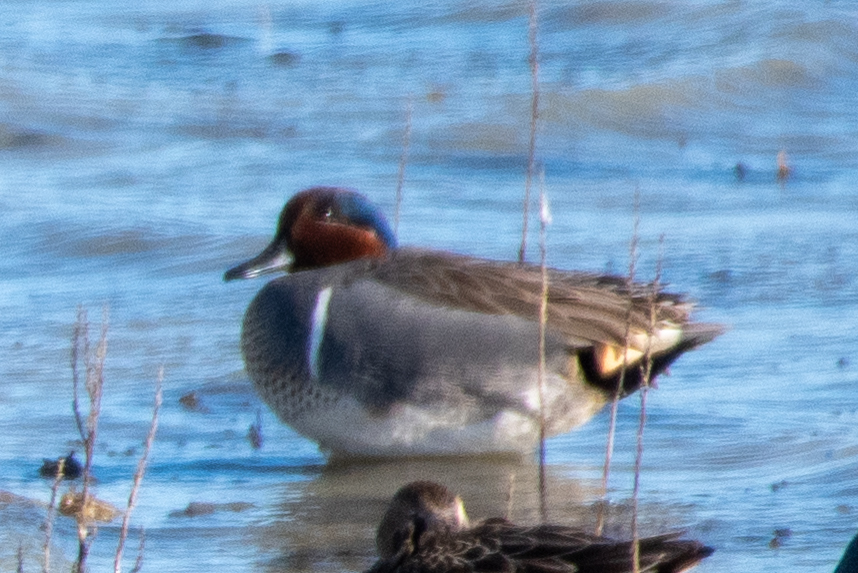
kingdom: Animalia
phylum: Chordata
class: Aves
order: Anseriformes
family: Anatidae
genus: Anas
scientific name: Anas crecca
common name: Eurasian teal
